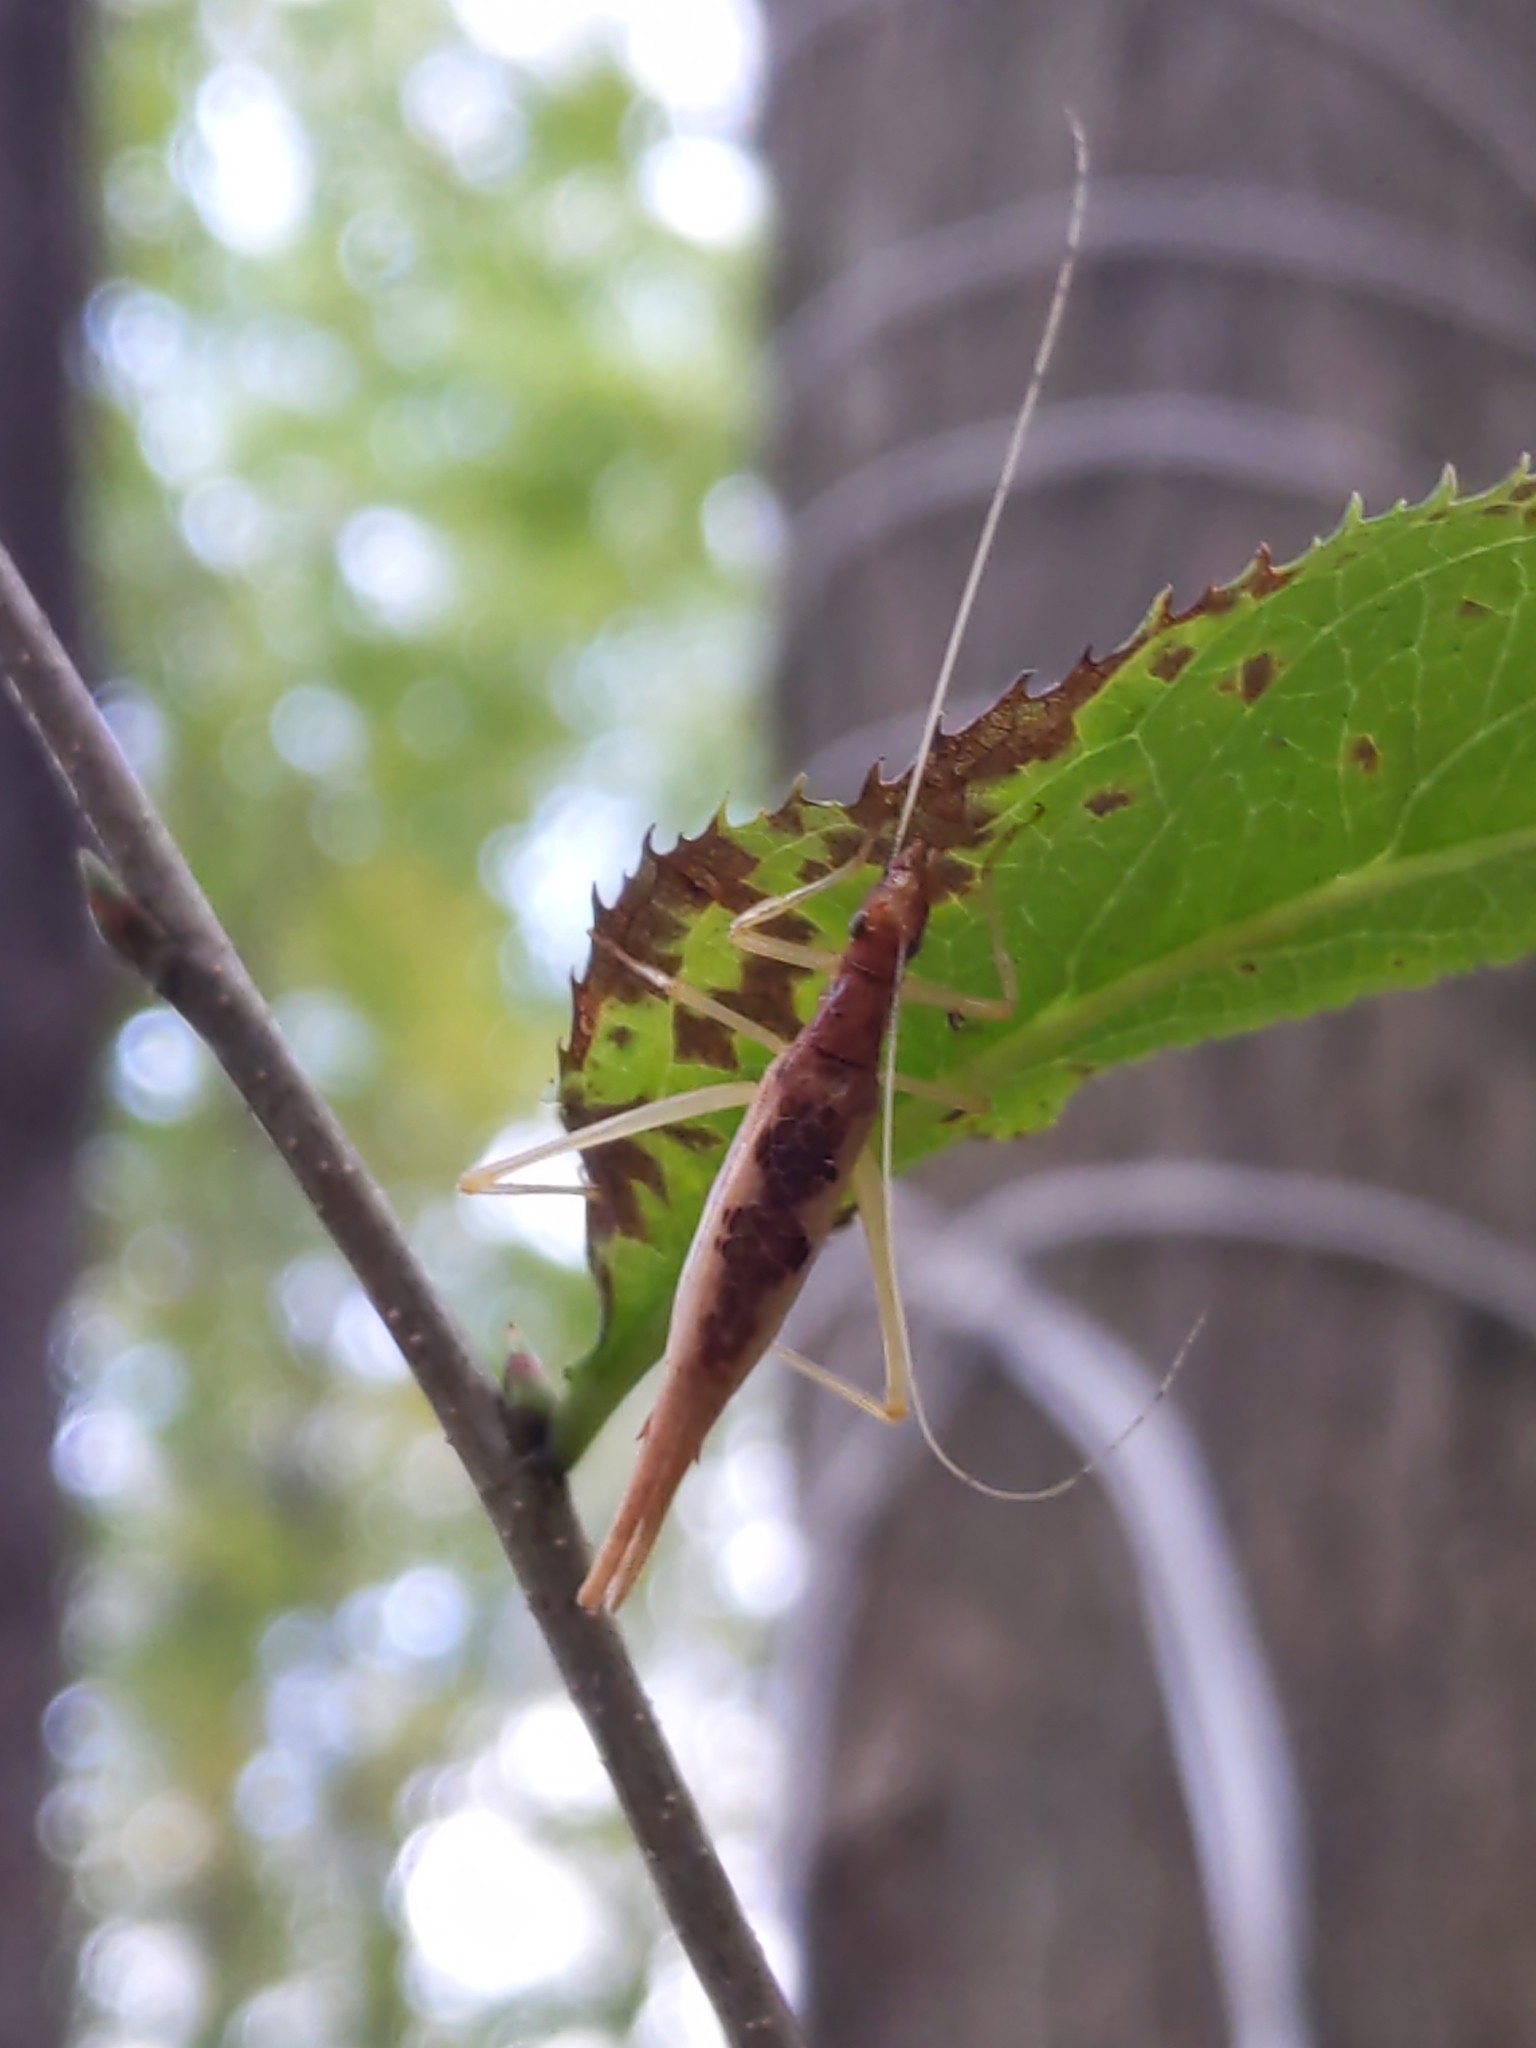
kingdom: Animalia
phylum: Arthropoda
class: Insecta
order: Orthoptera
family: Gryllidae
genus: Neoxabea
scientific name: Neoxabea bipunctata
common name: Two-spotted tree cricket
